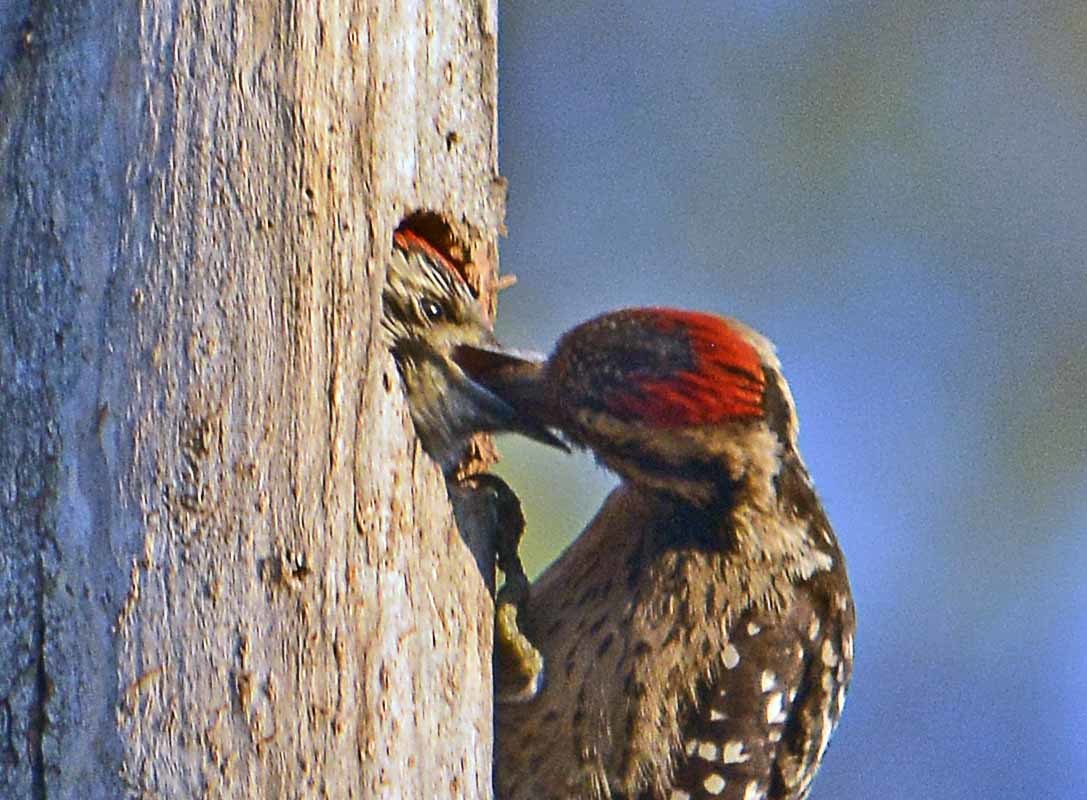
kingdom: Animalia
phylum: Chordata
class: Aves
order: Piciformes
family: Picidae
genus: Dryobates
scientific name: Dryobates scalaris
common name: Ladder-backed woodpecker
